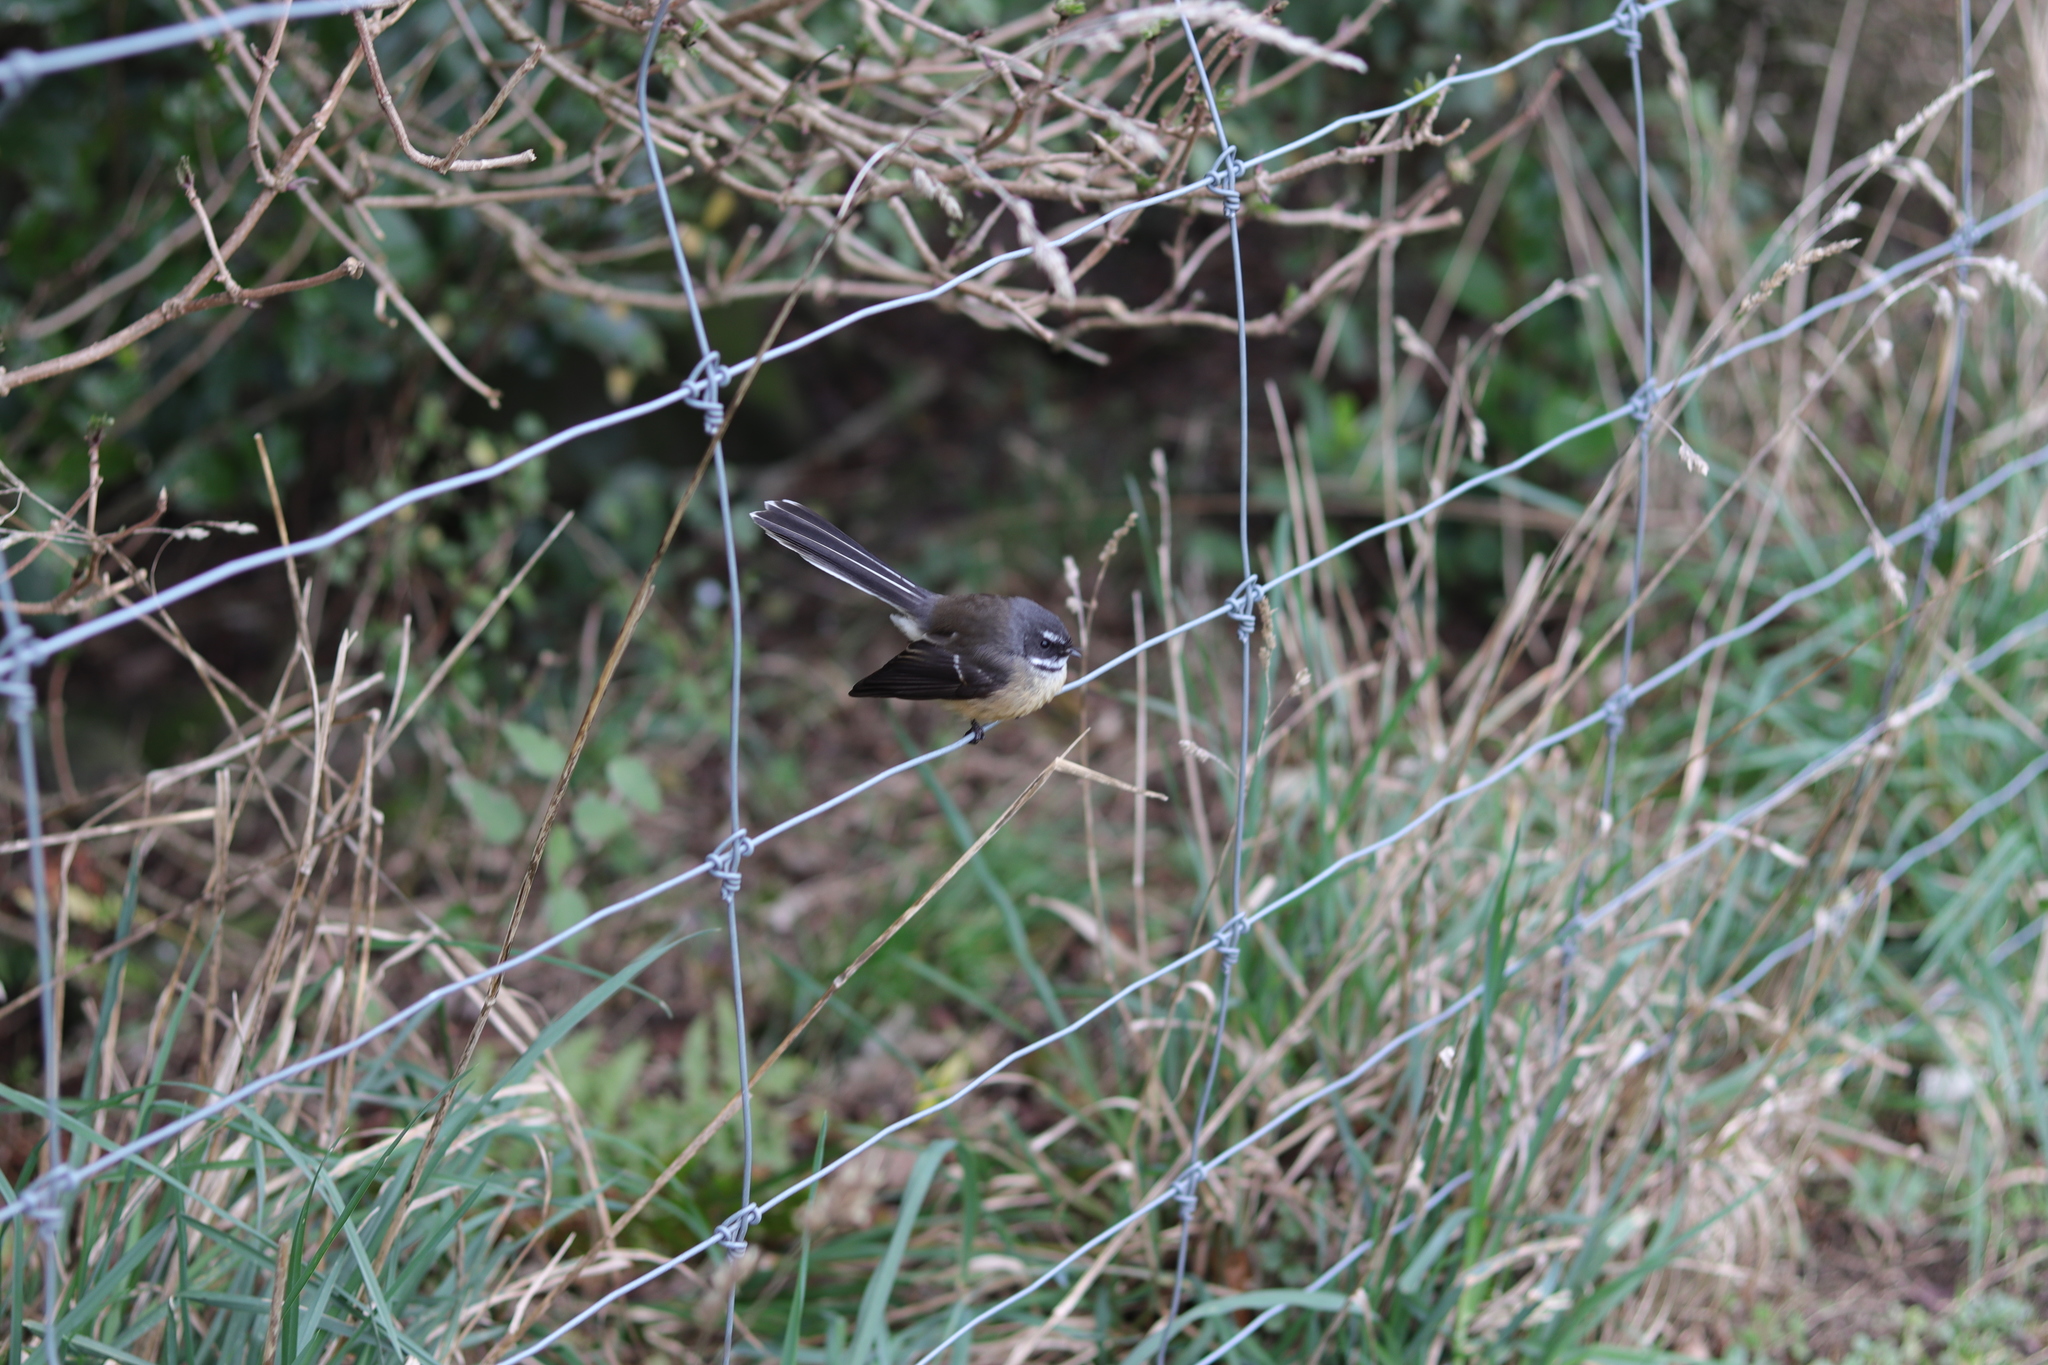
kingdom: Animalia
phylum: Chordata
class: Aves
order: Passeriformes
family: Rhipiduridae
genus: Rhipidura
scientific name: Rhipidura fuliginosa
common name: New zealand fantail
